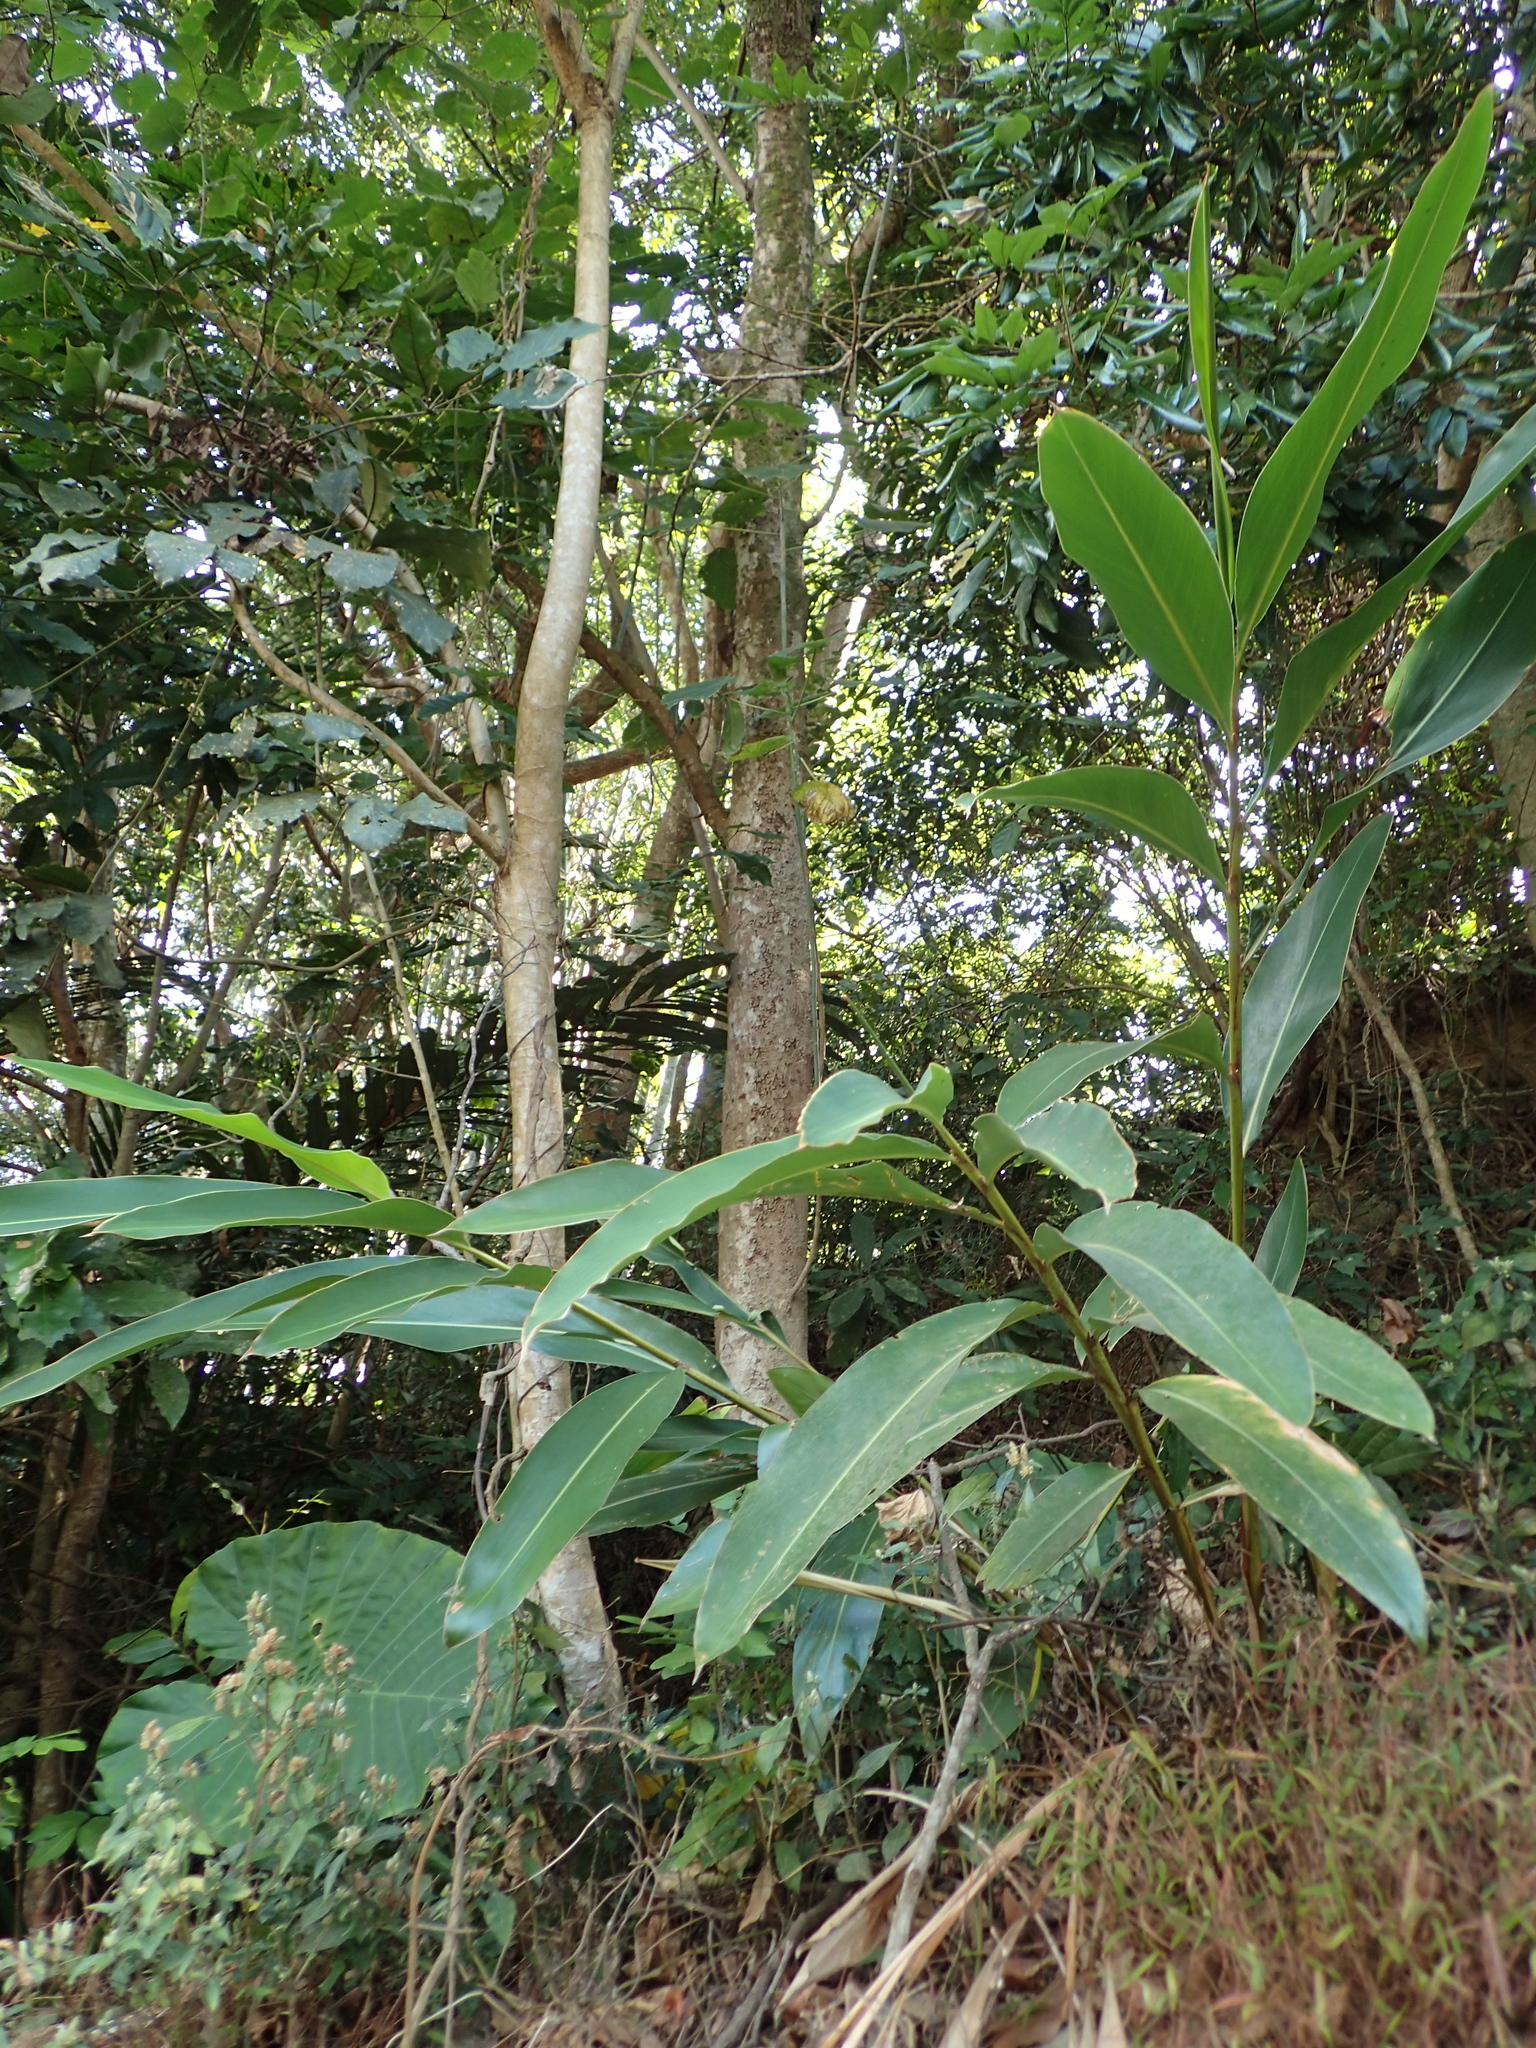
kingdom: Plantae
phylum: Tracheophyta
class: Liliopsida
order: Zingiberales
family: Zingiberaceae
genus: Alpinia
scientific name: Alpinia zerumbet
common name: Shellplant
